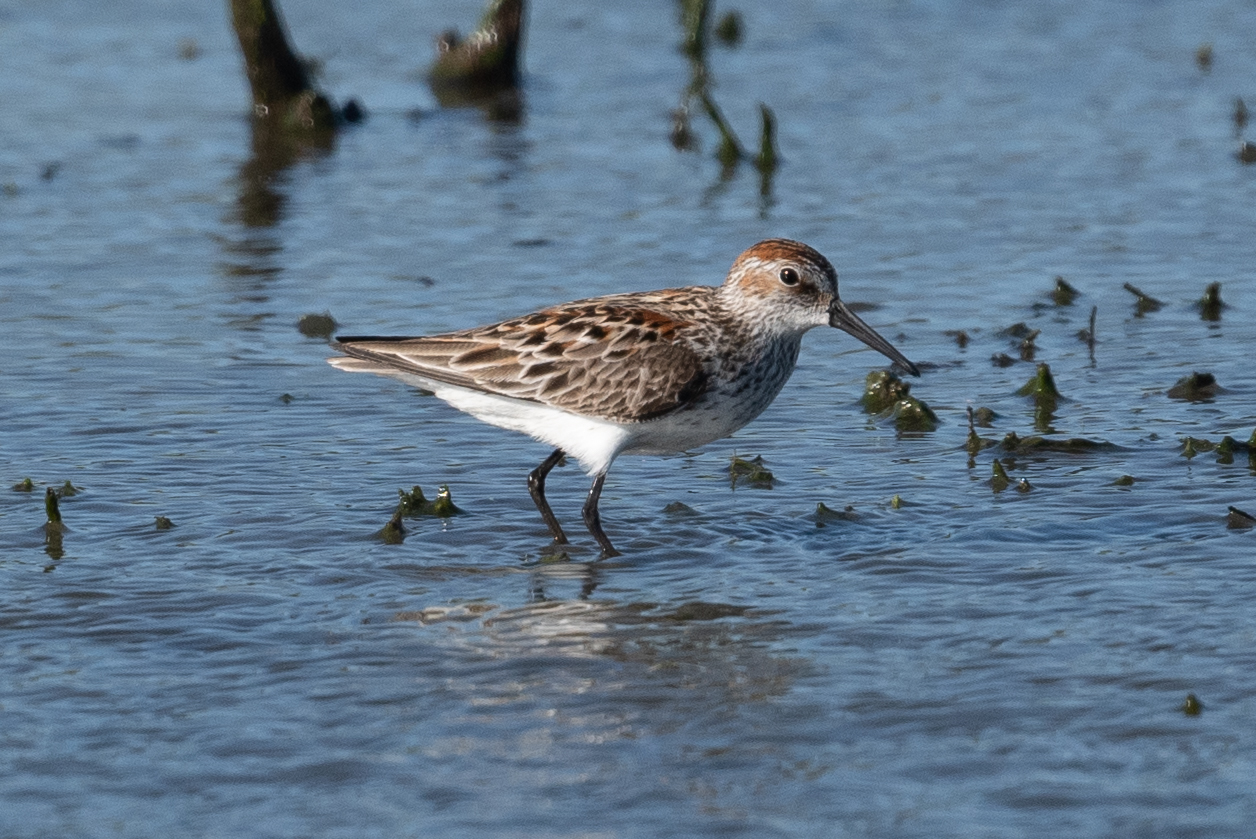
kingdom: Animalia
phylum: Chordata
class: Aves
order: Charadriiformes
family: Scolopacidae
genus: Calidris
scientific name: Calidris mauri
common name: Western sandpiper
